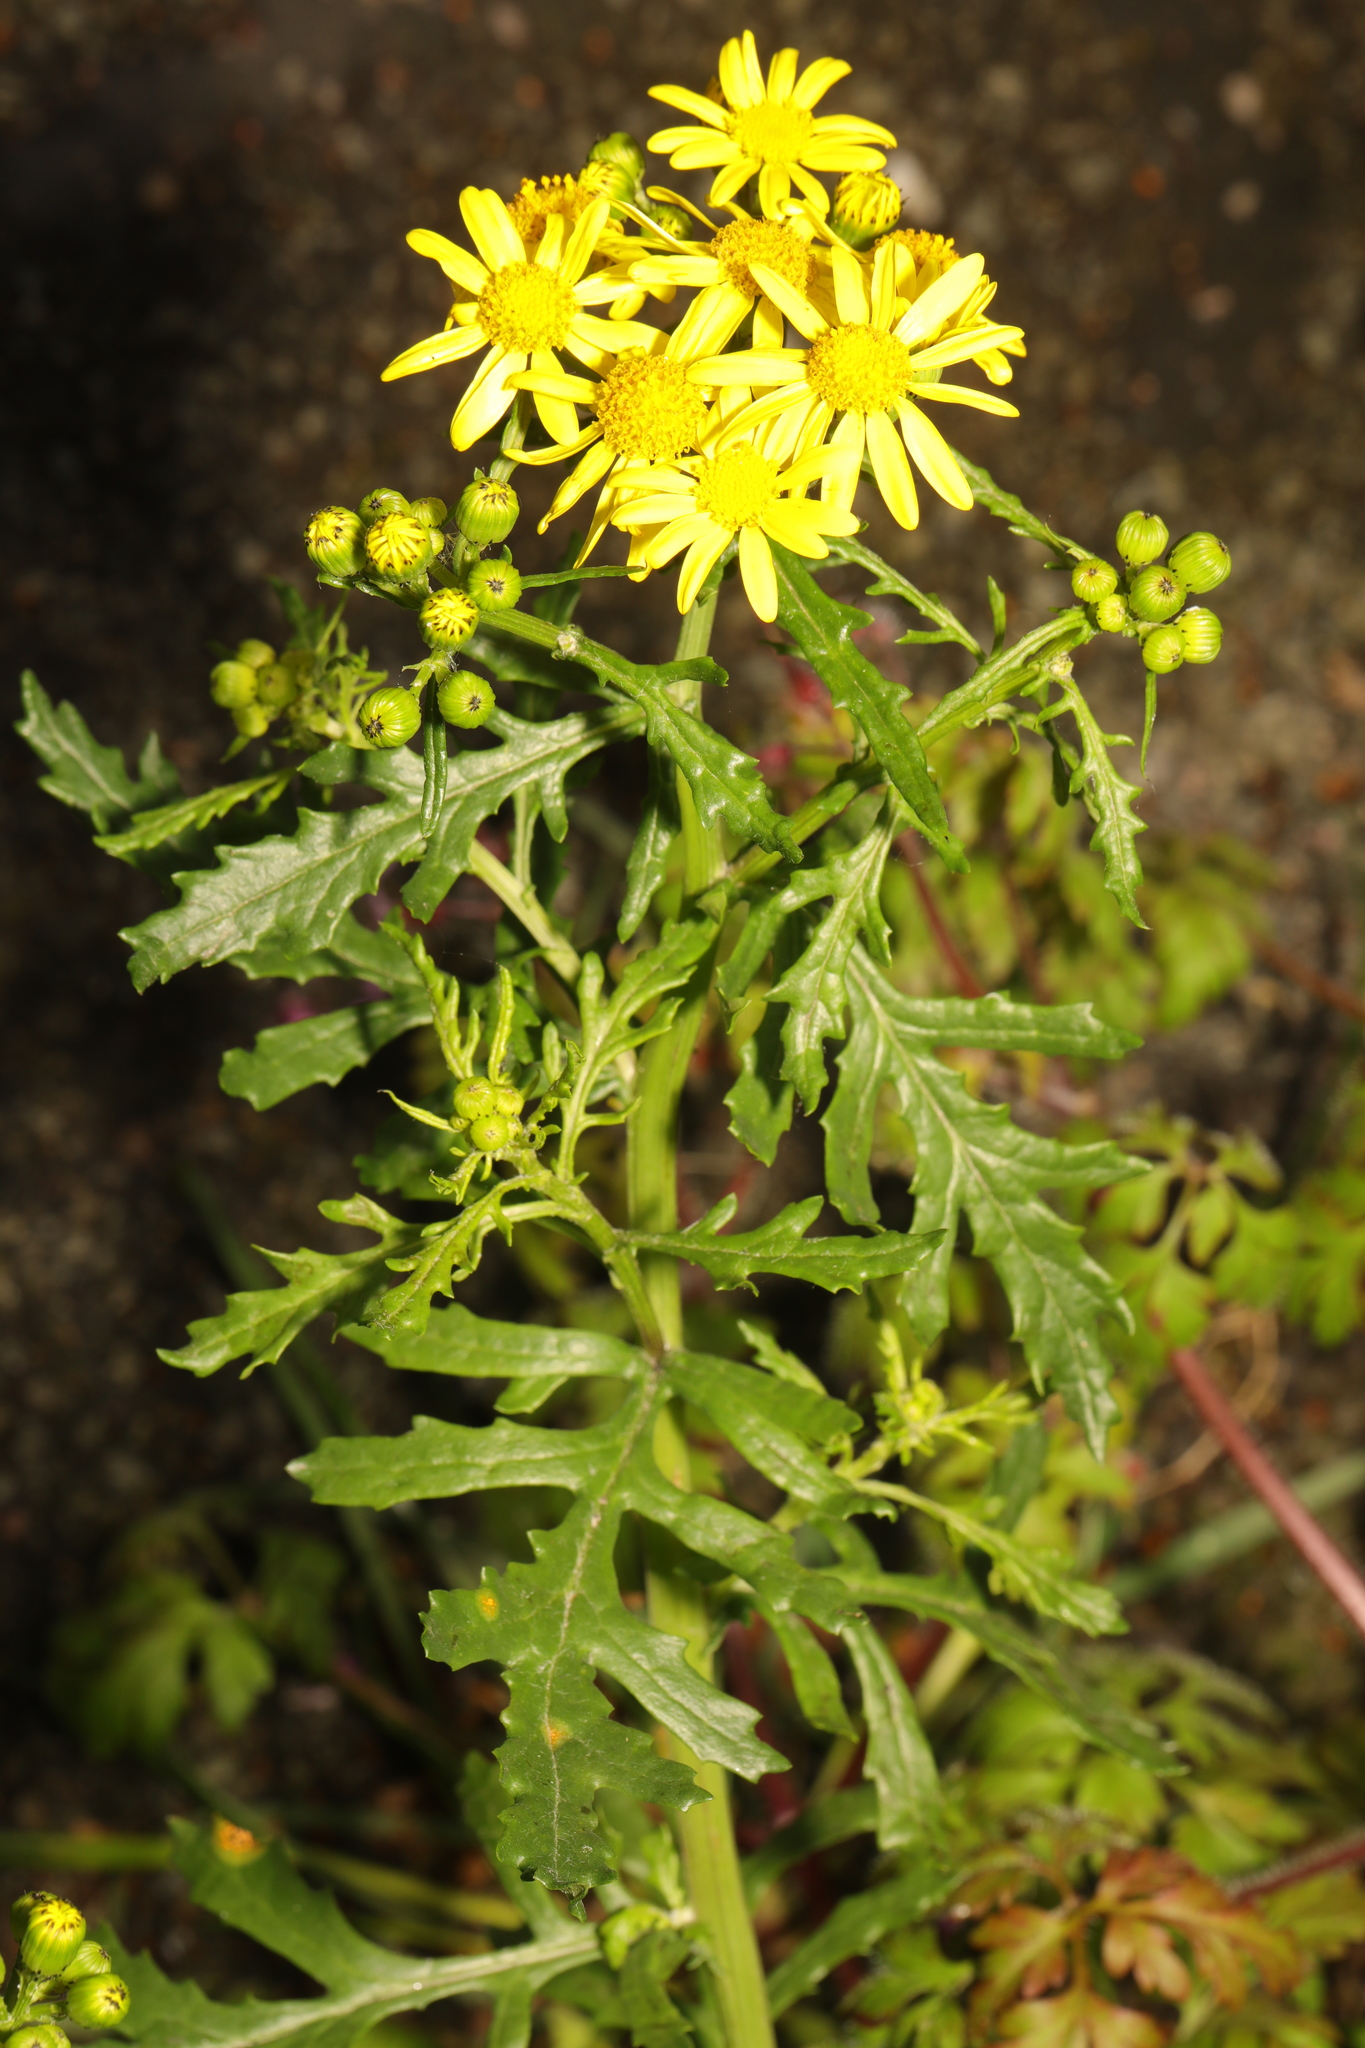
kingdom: Plantae
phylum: Tracheophyta
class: Magnoliopsida
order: Asterales
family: Asteraceae
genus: Senecio
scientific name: Senecio squalidus
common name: Oxford ragwort
